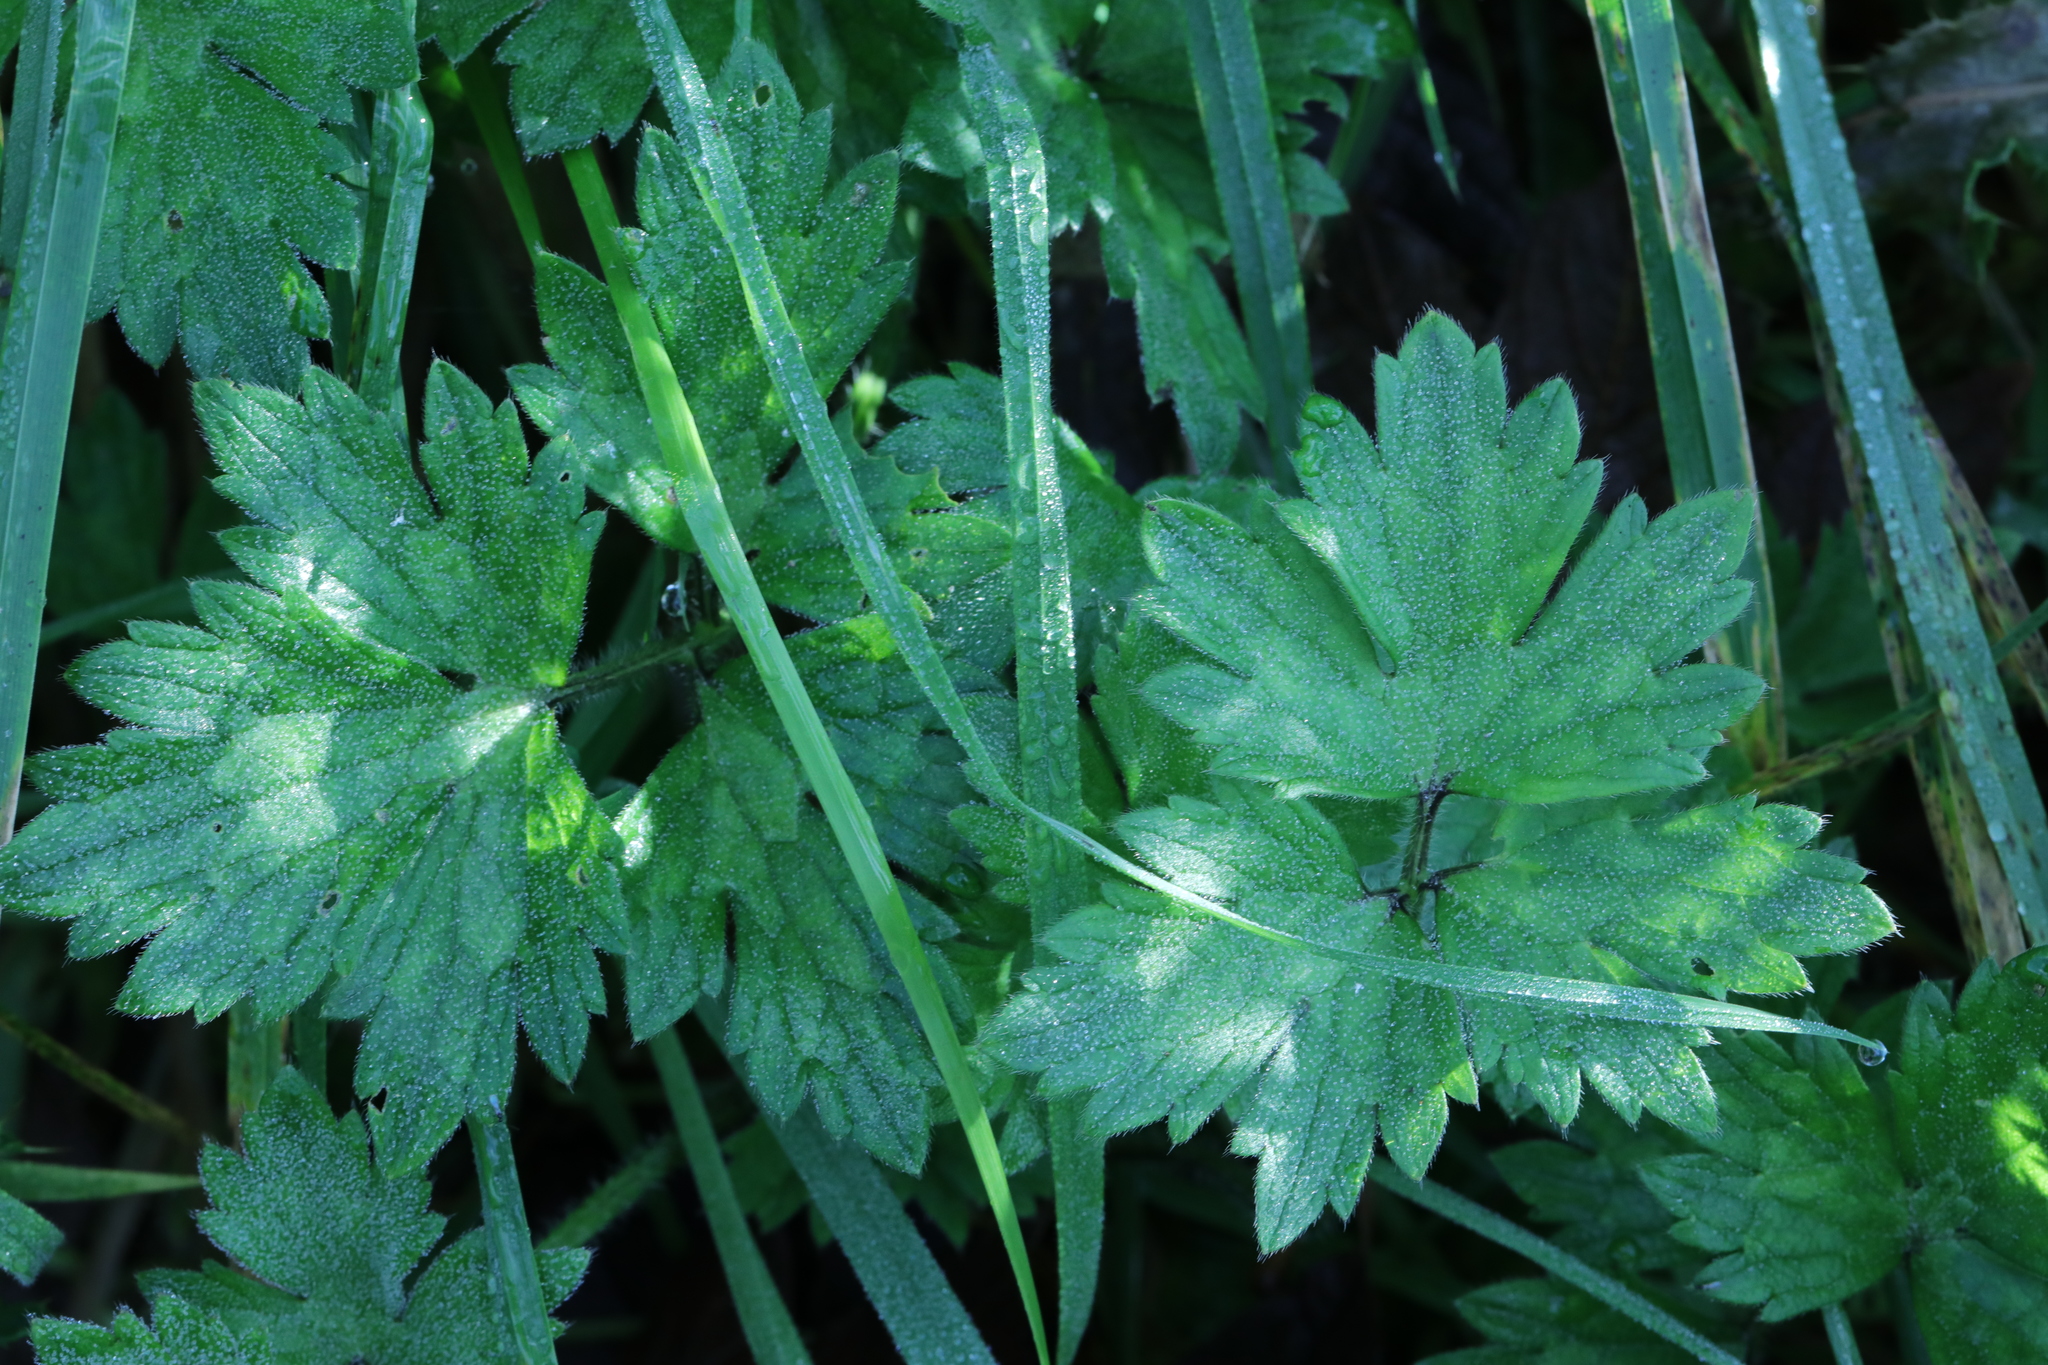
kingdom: Plantae
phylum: Tracheophyta
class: Magnoliopsida
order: Ranunculales
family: Ranunculaceae
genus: Ranunculus
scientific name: Ranunculus repens
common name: Creeping buttercup
